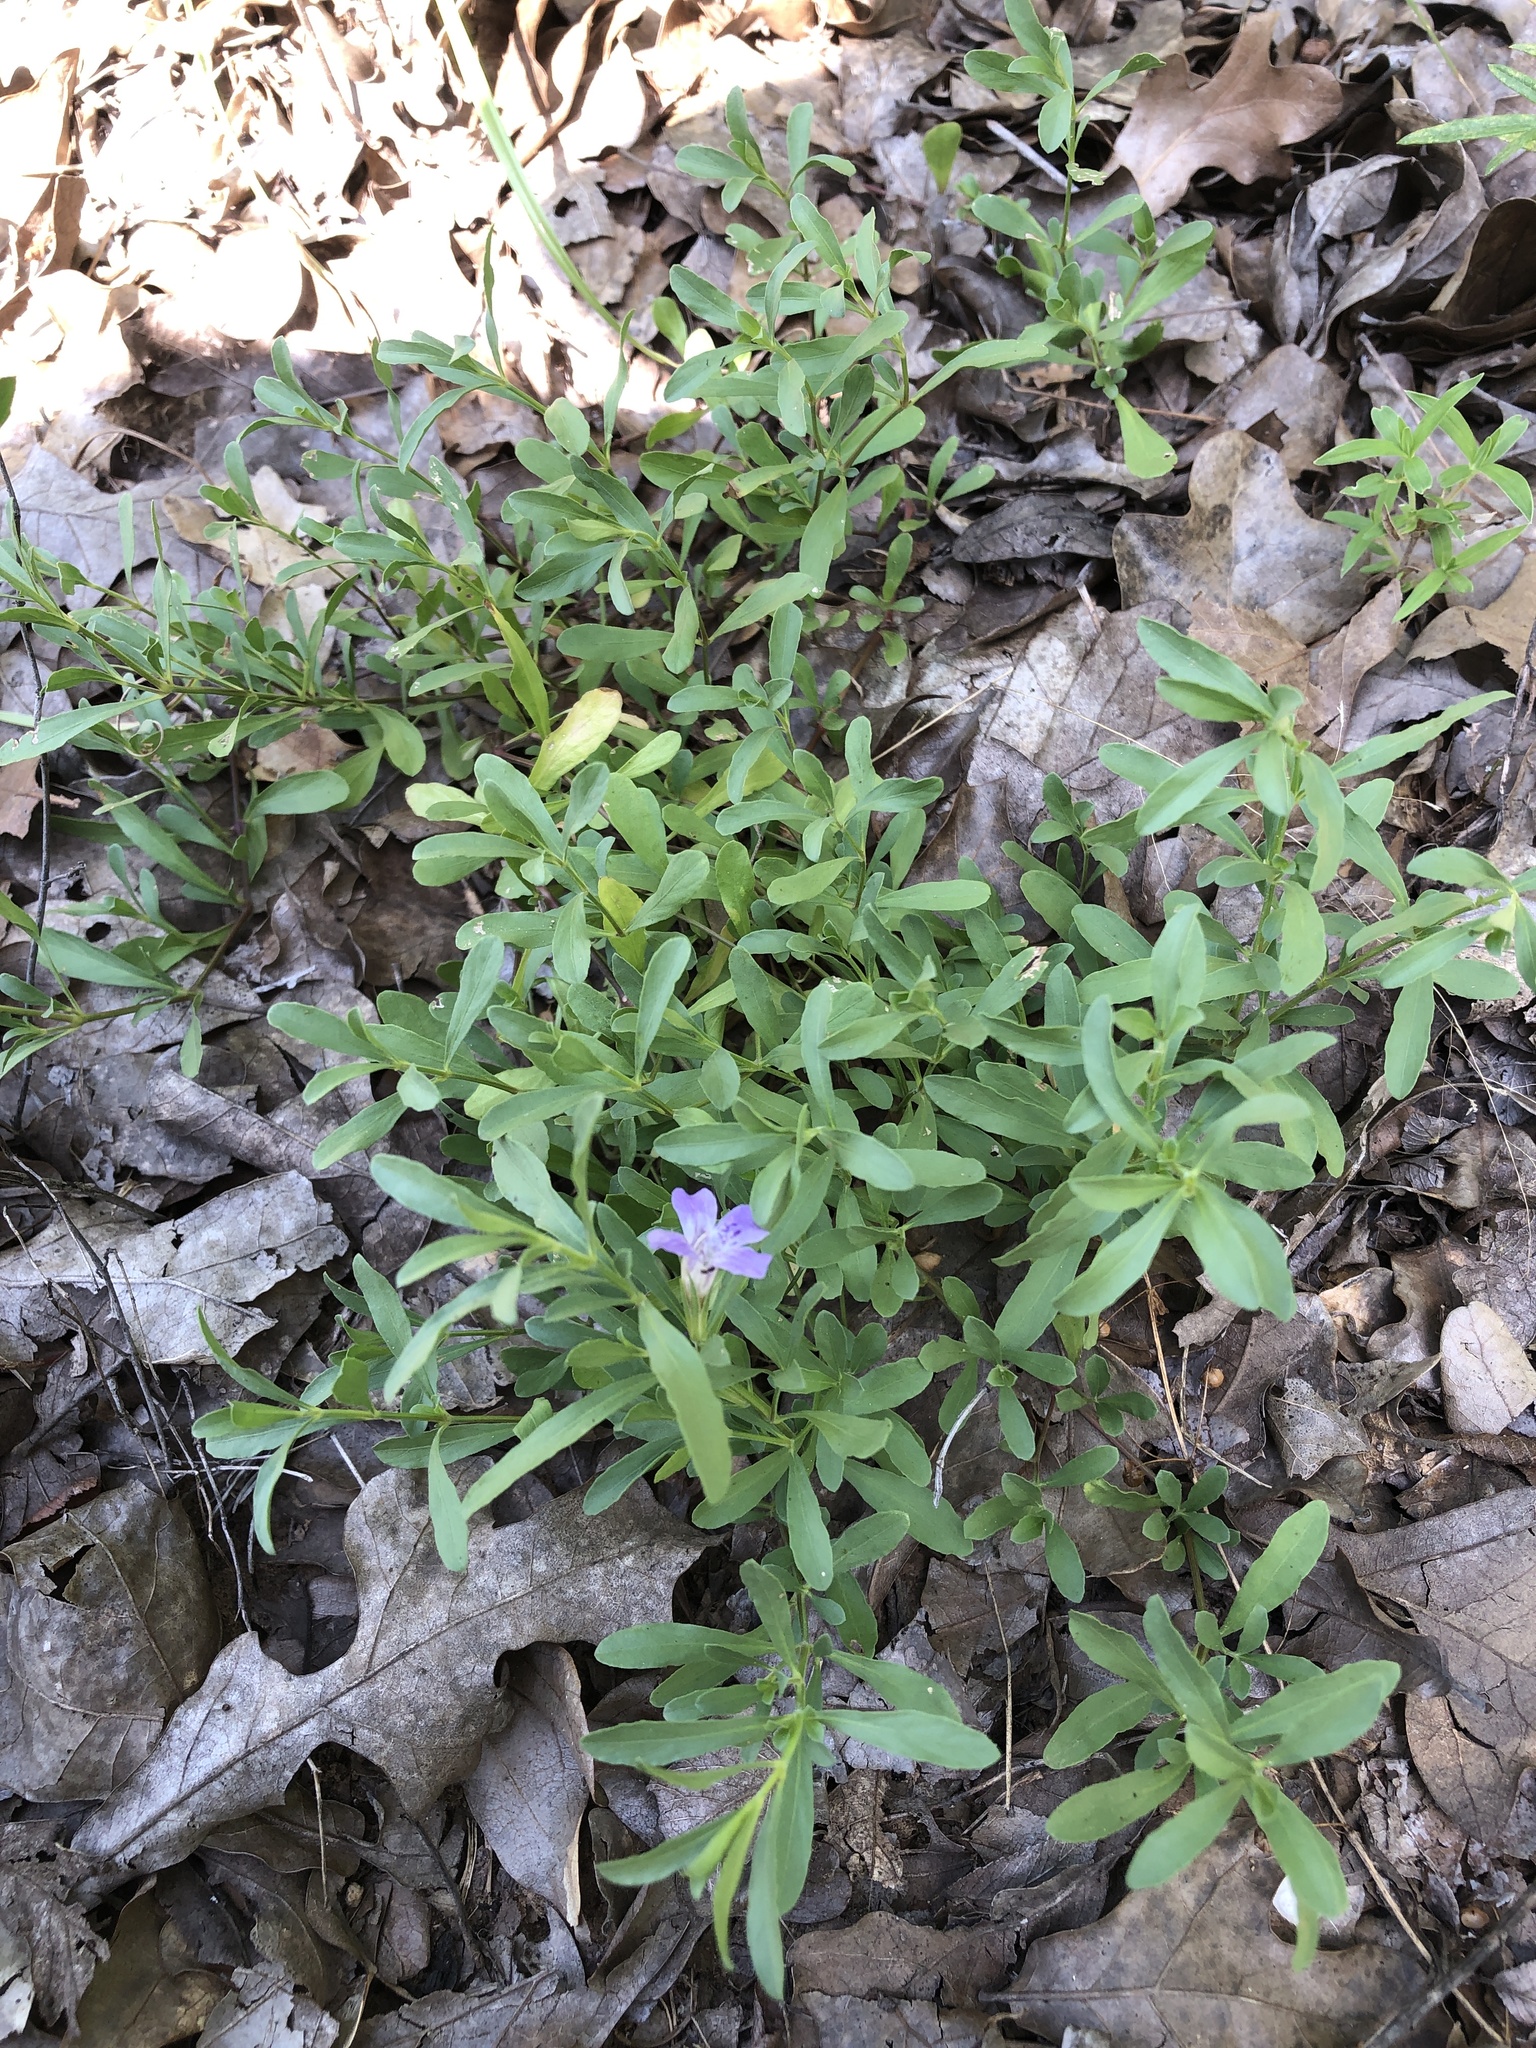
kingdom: Plantae
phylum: Tracheophyta
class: Magnoliopsida
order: Lamiales
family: Acanthaceae
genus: Dyschoriste
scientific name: Dyschoriste linearis
